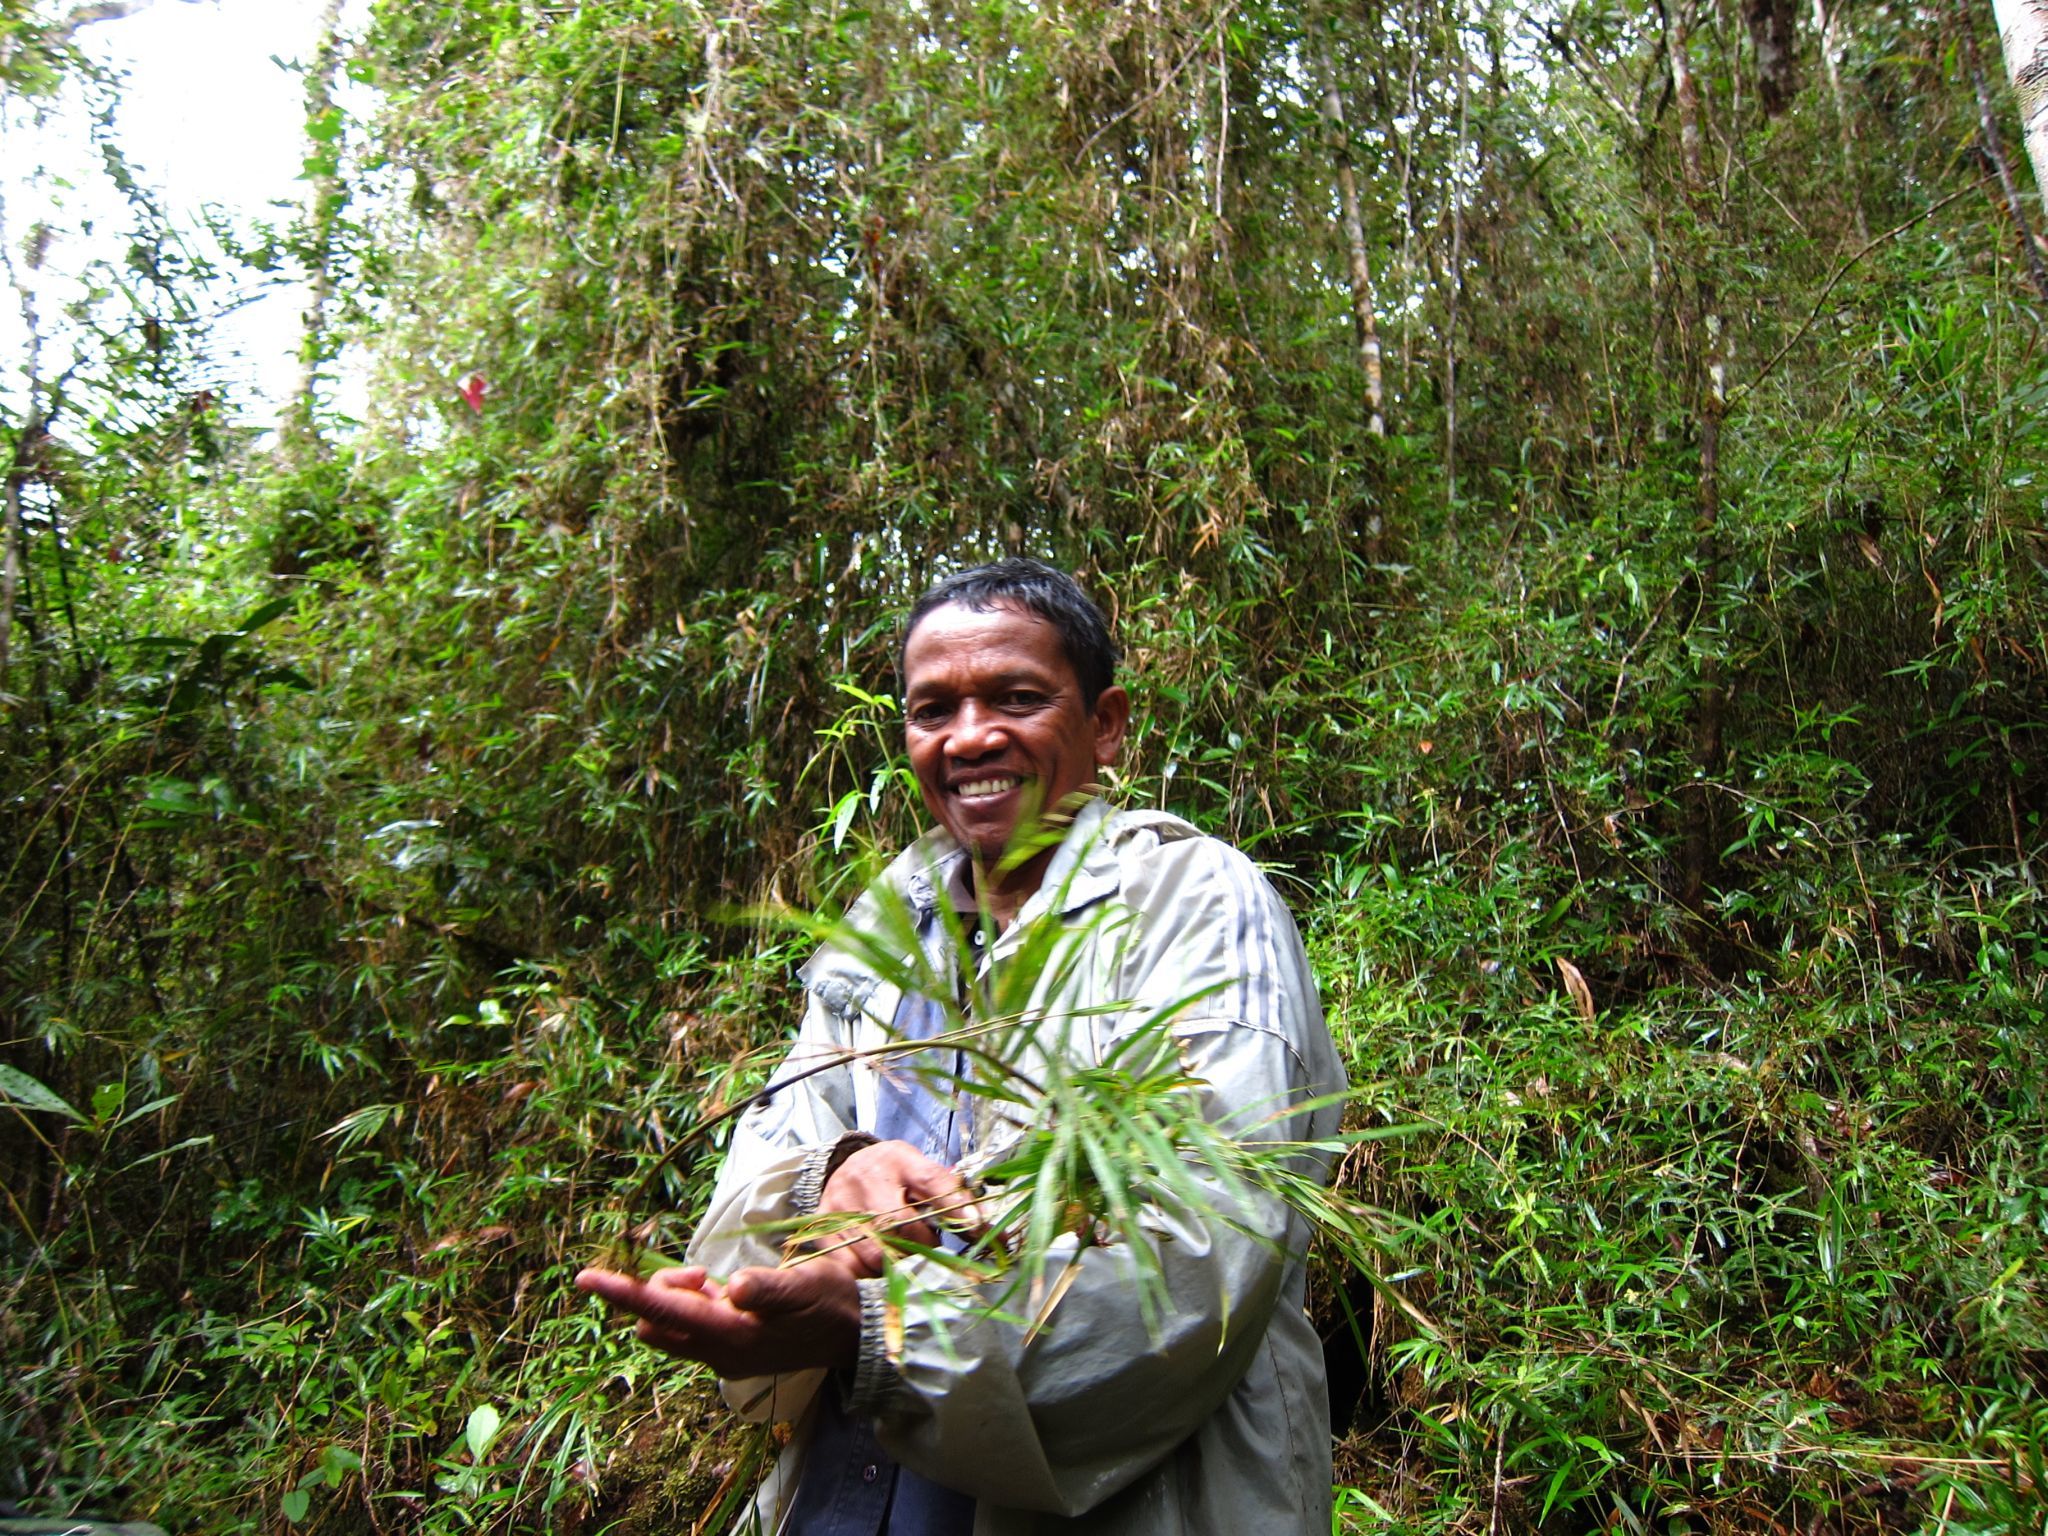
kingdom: Plantae
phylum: Tracheophyta
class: Liliopsida
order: Poales
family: Poaceae
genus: Nastus
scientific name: Nastus elongatus
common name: Spider bamboo
